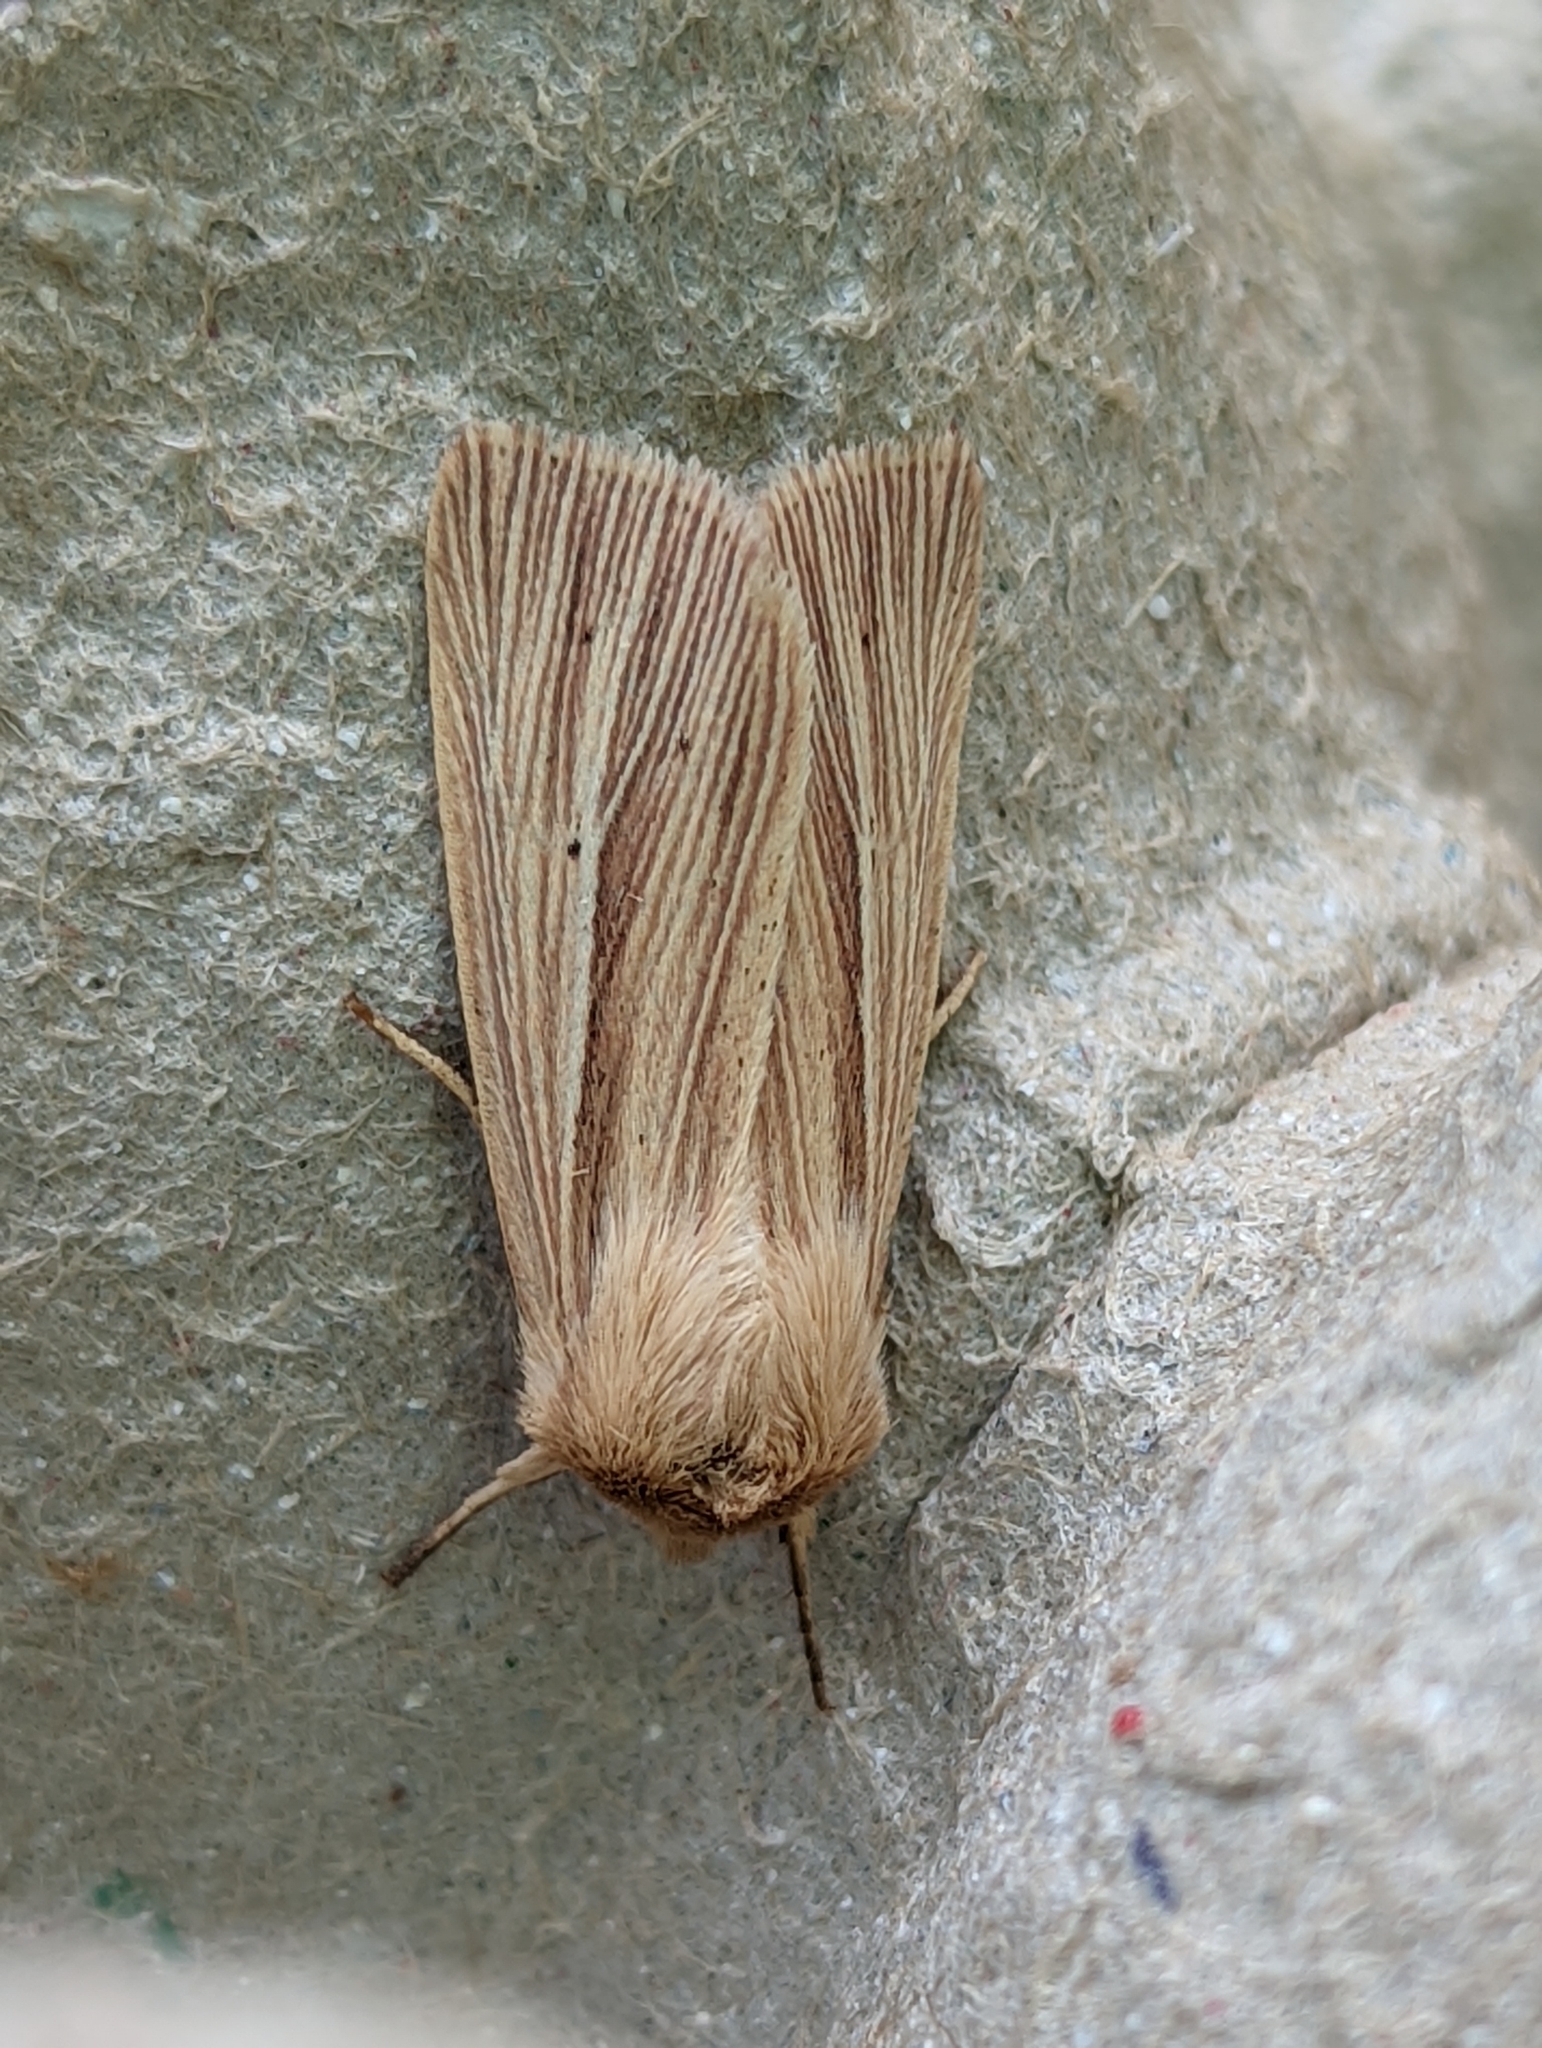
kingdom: Animalia
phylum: Arthropoda
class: Insecta
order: Lepidoptera
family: Noctuidae
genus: Mythimna
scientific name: Mythimna impura
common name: Smoky wainscot
